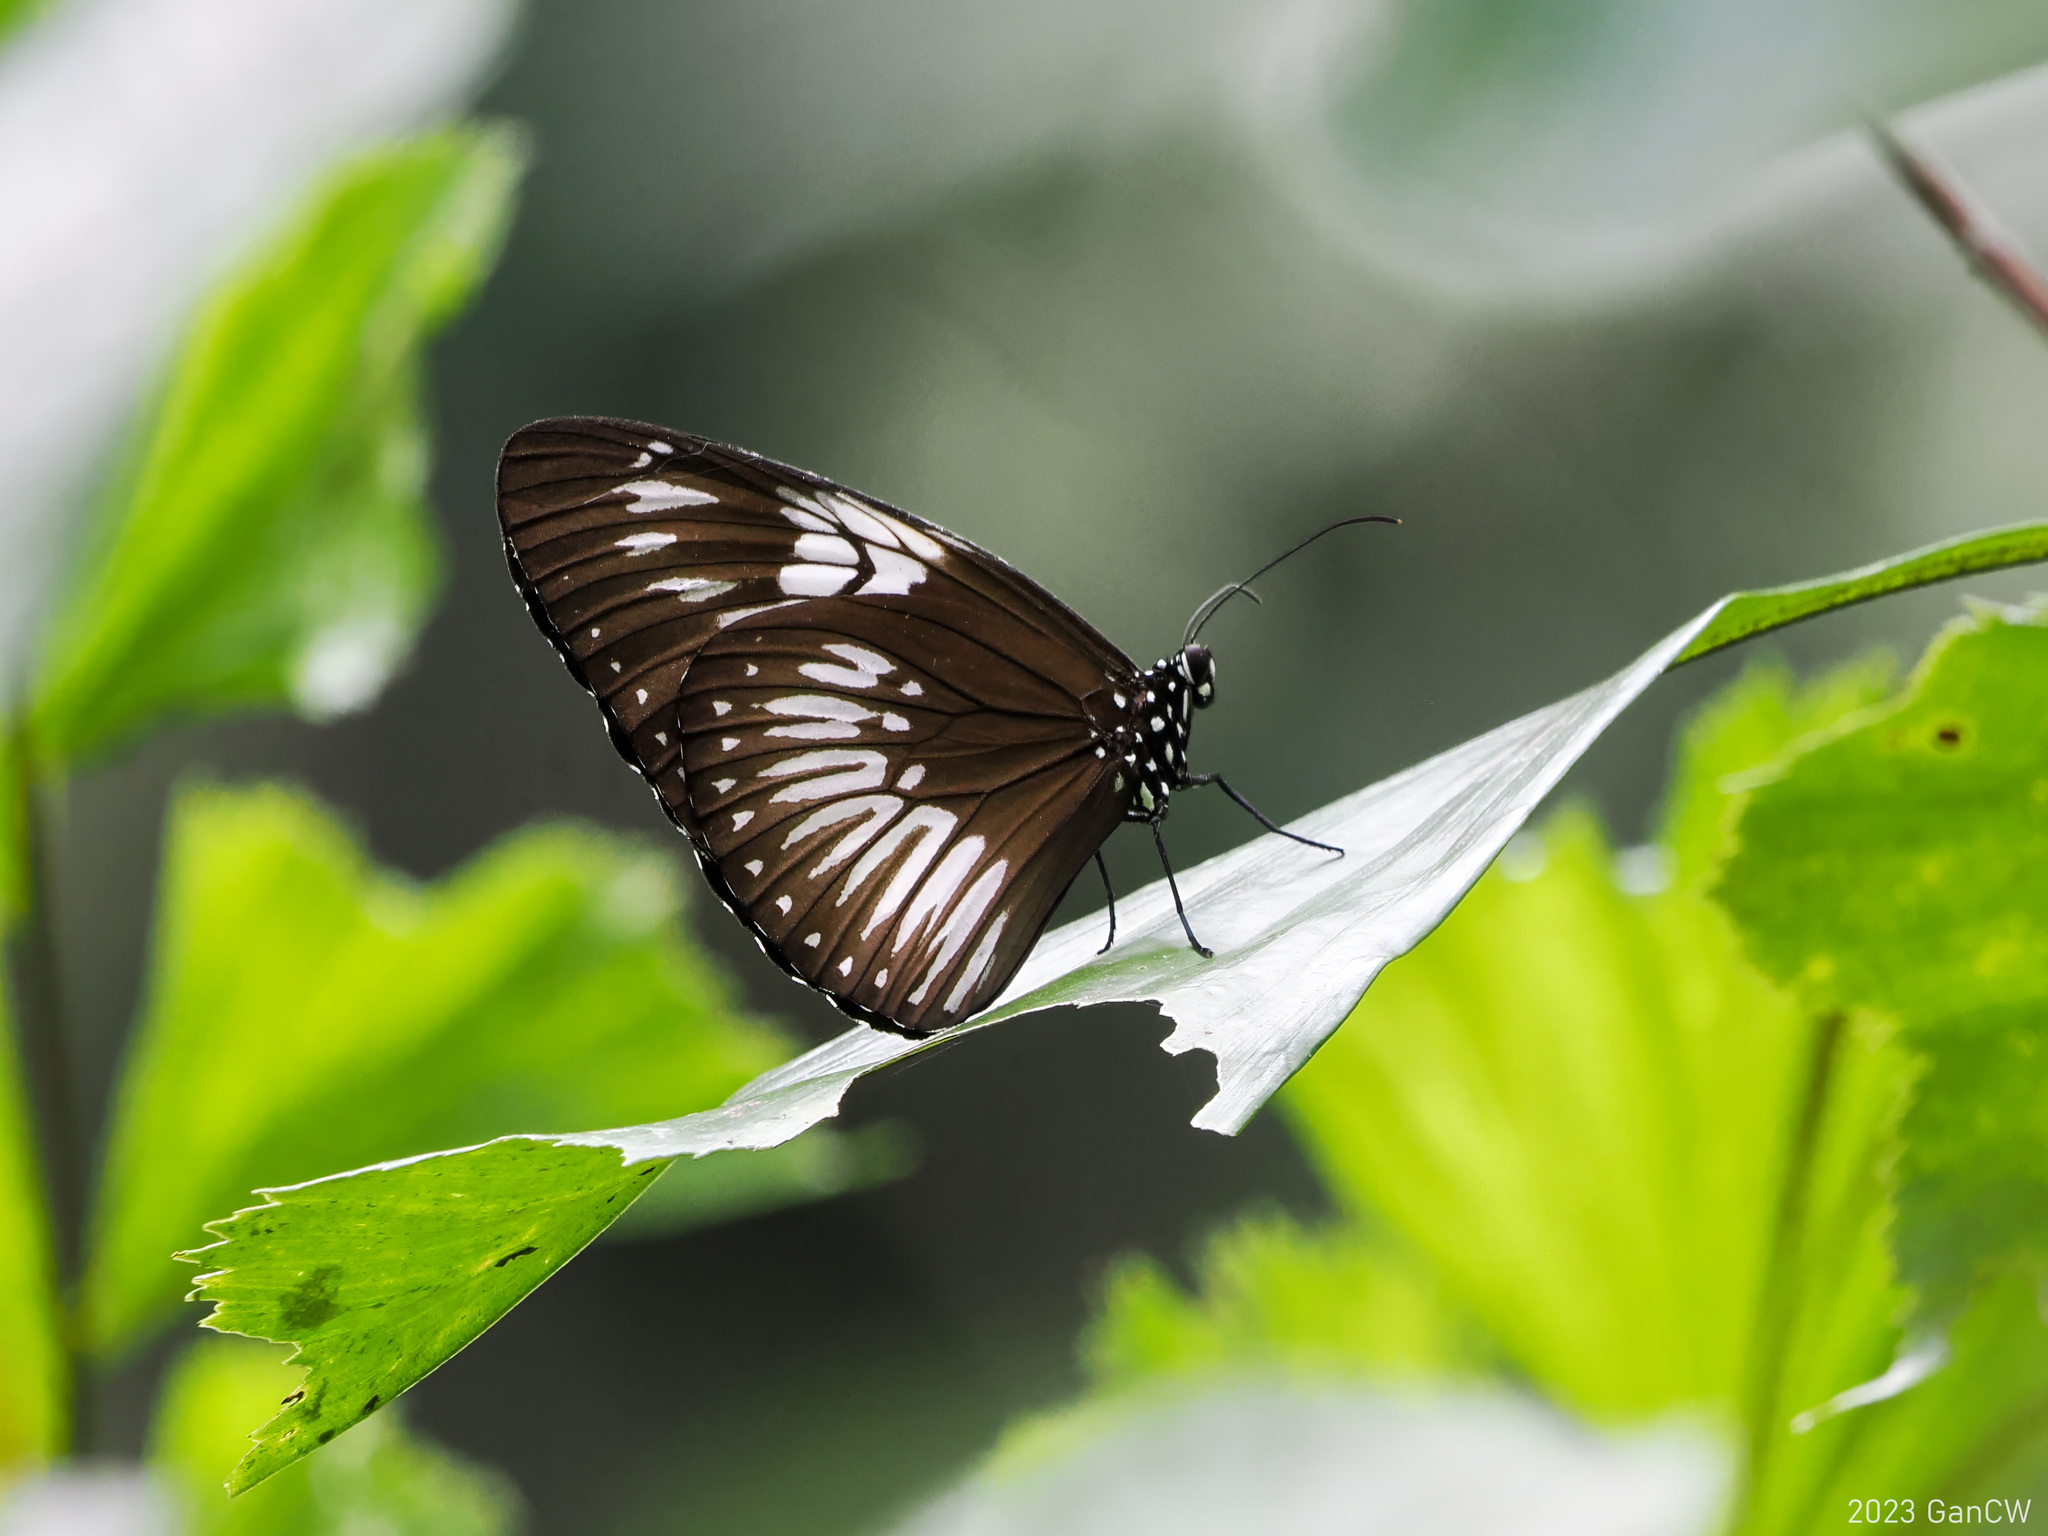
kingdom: Animalia
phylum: Arthropoda
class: Insecta
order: Lepidoptera
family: Nymphalidae
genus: Euploea
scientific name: Euploea eupator
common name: Sulawesi pied crow
